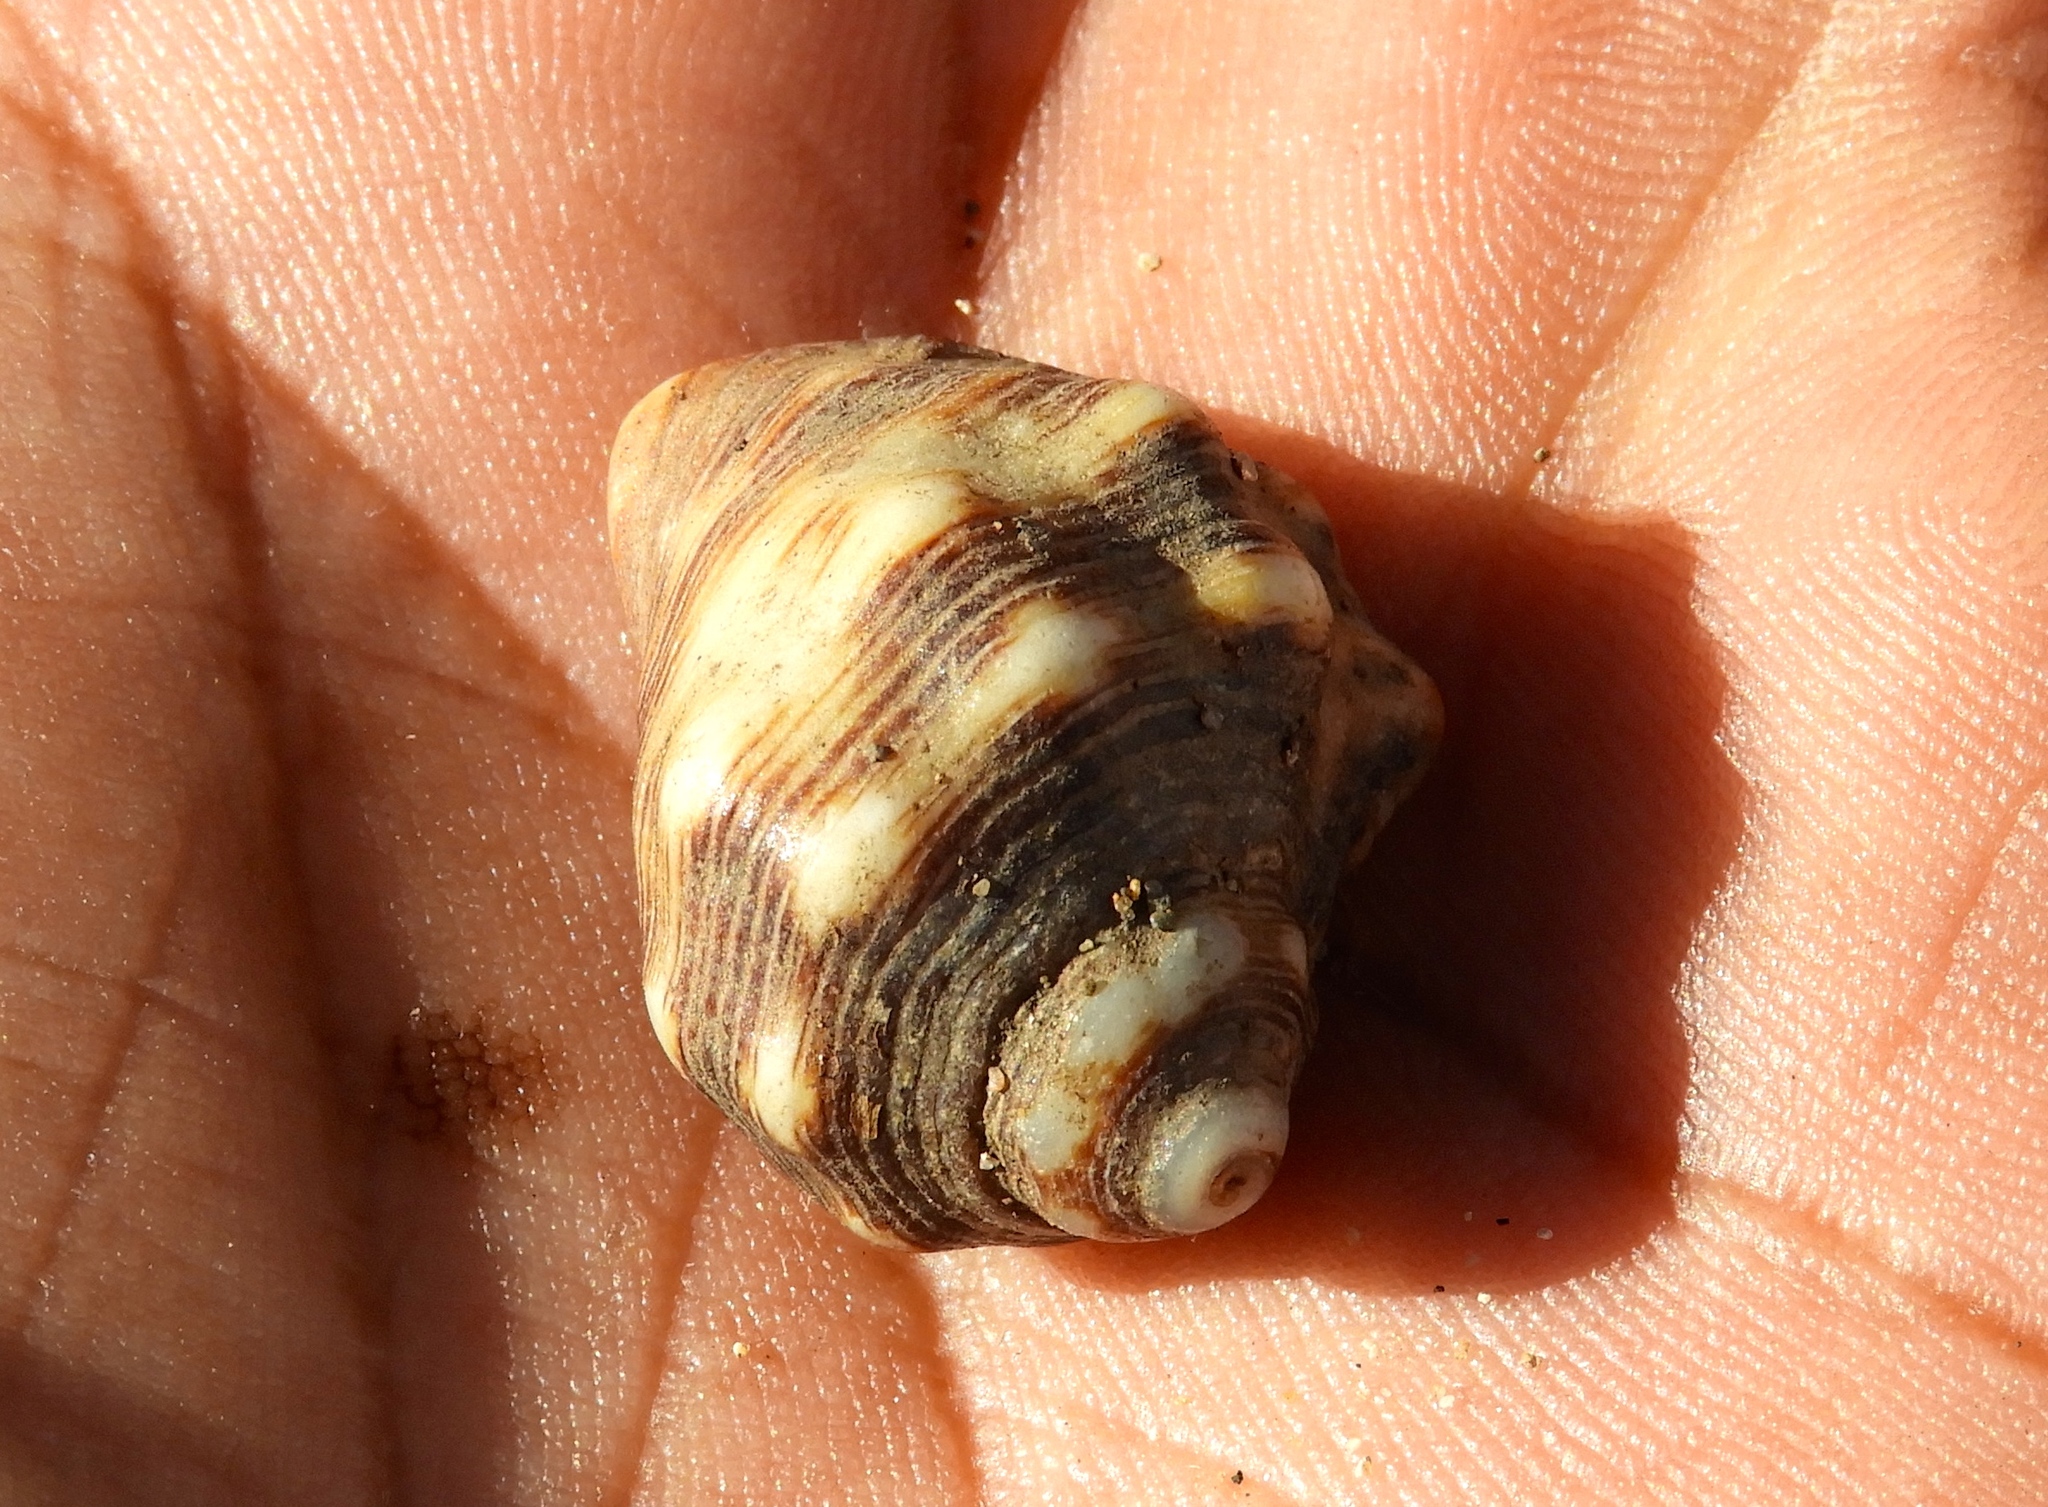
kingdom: Animalia
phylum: Arthropoda
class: Malacostraca
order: Decapoda
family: Coenobitidae
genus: Coenobita
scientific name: Coenobita compressus
